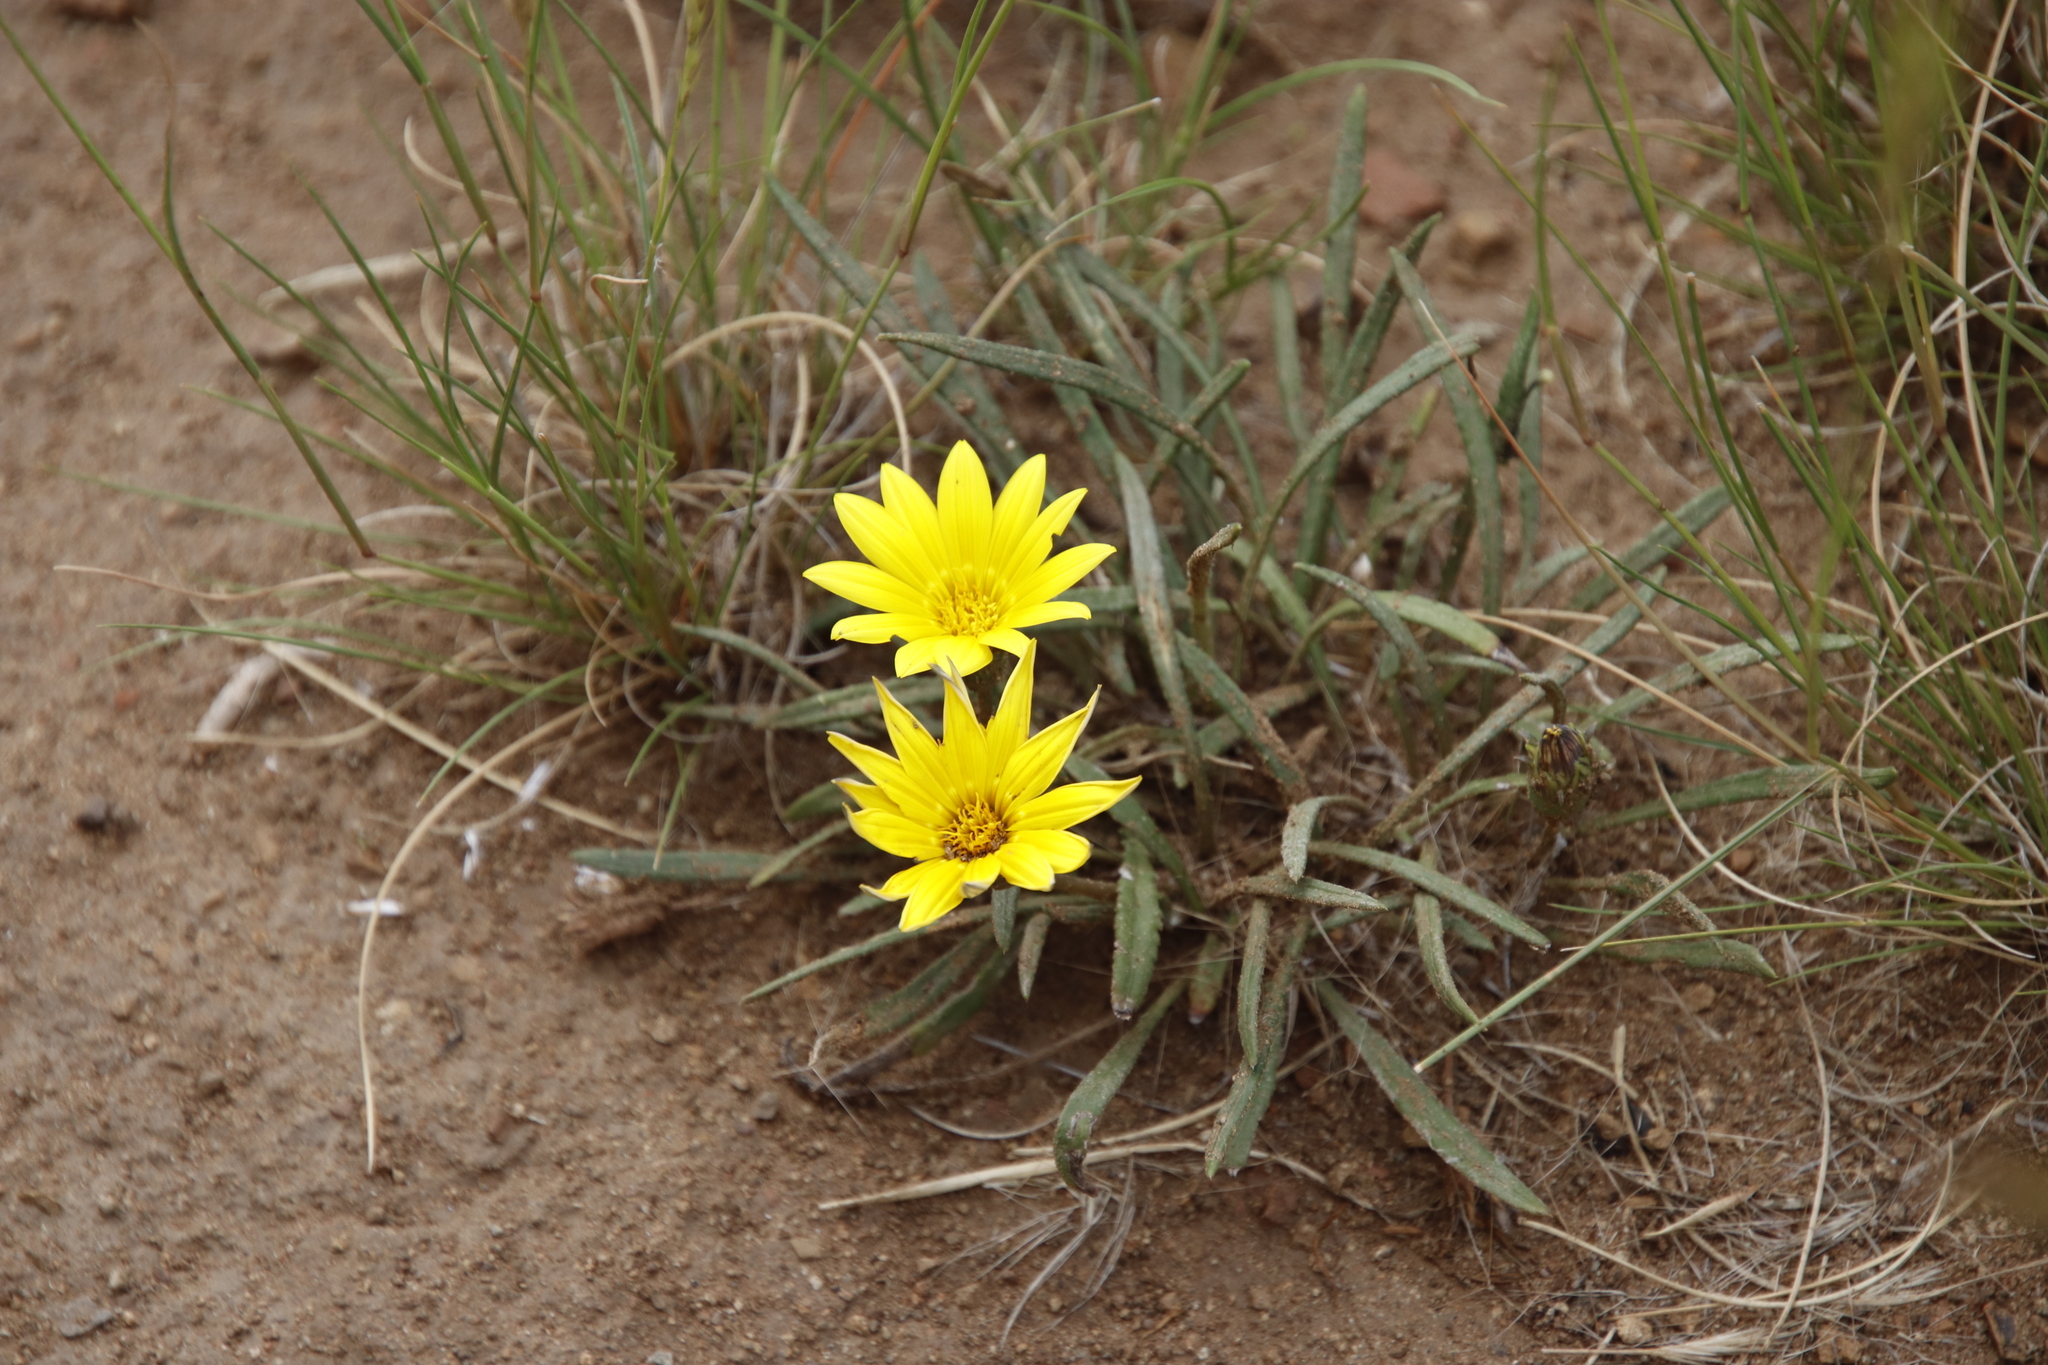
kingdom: Plantae
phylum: Tracheophyta
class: Magnoliopsida
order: Asterales
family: Asteraceae
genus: Gazania
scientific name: Gazania krebsiana
